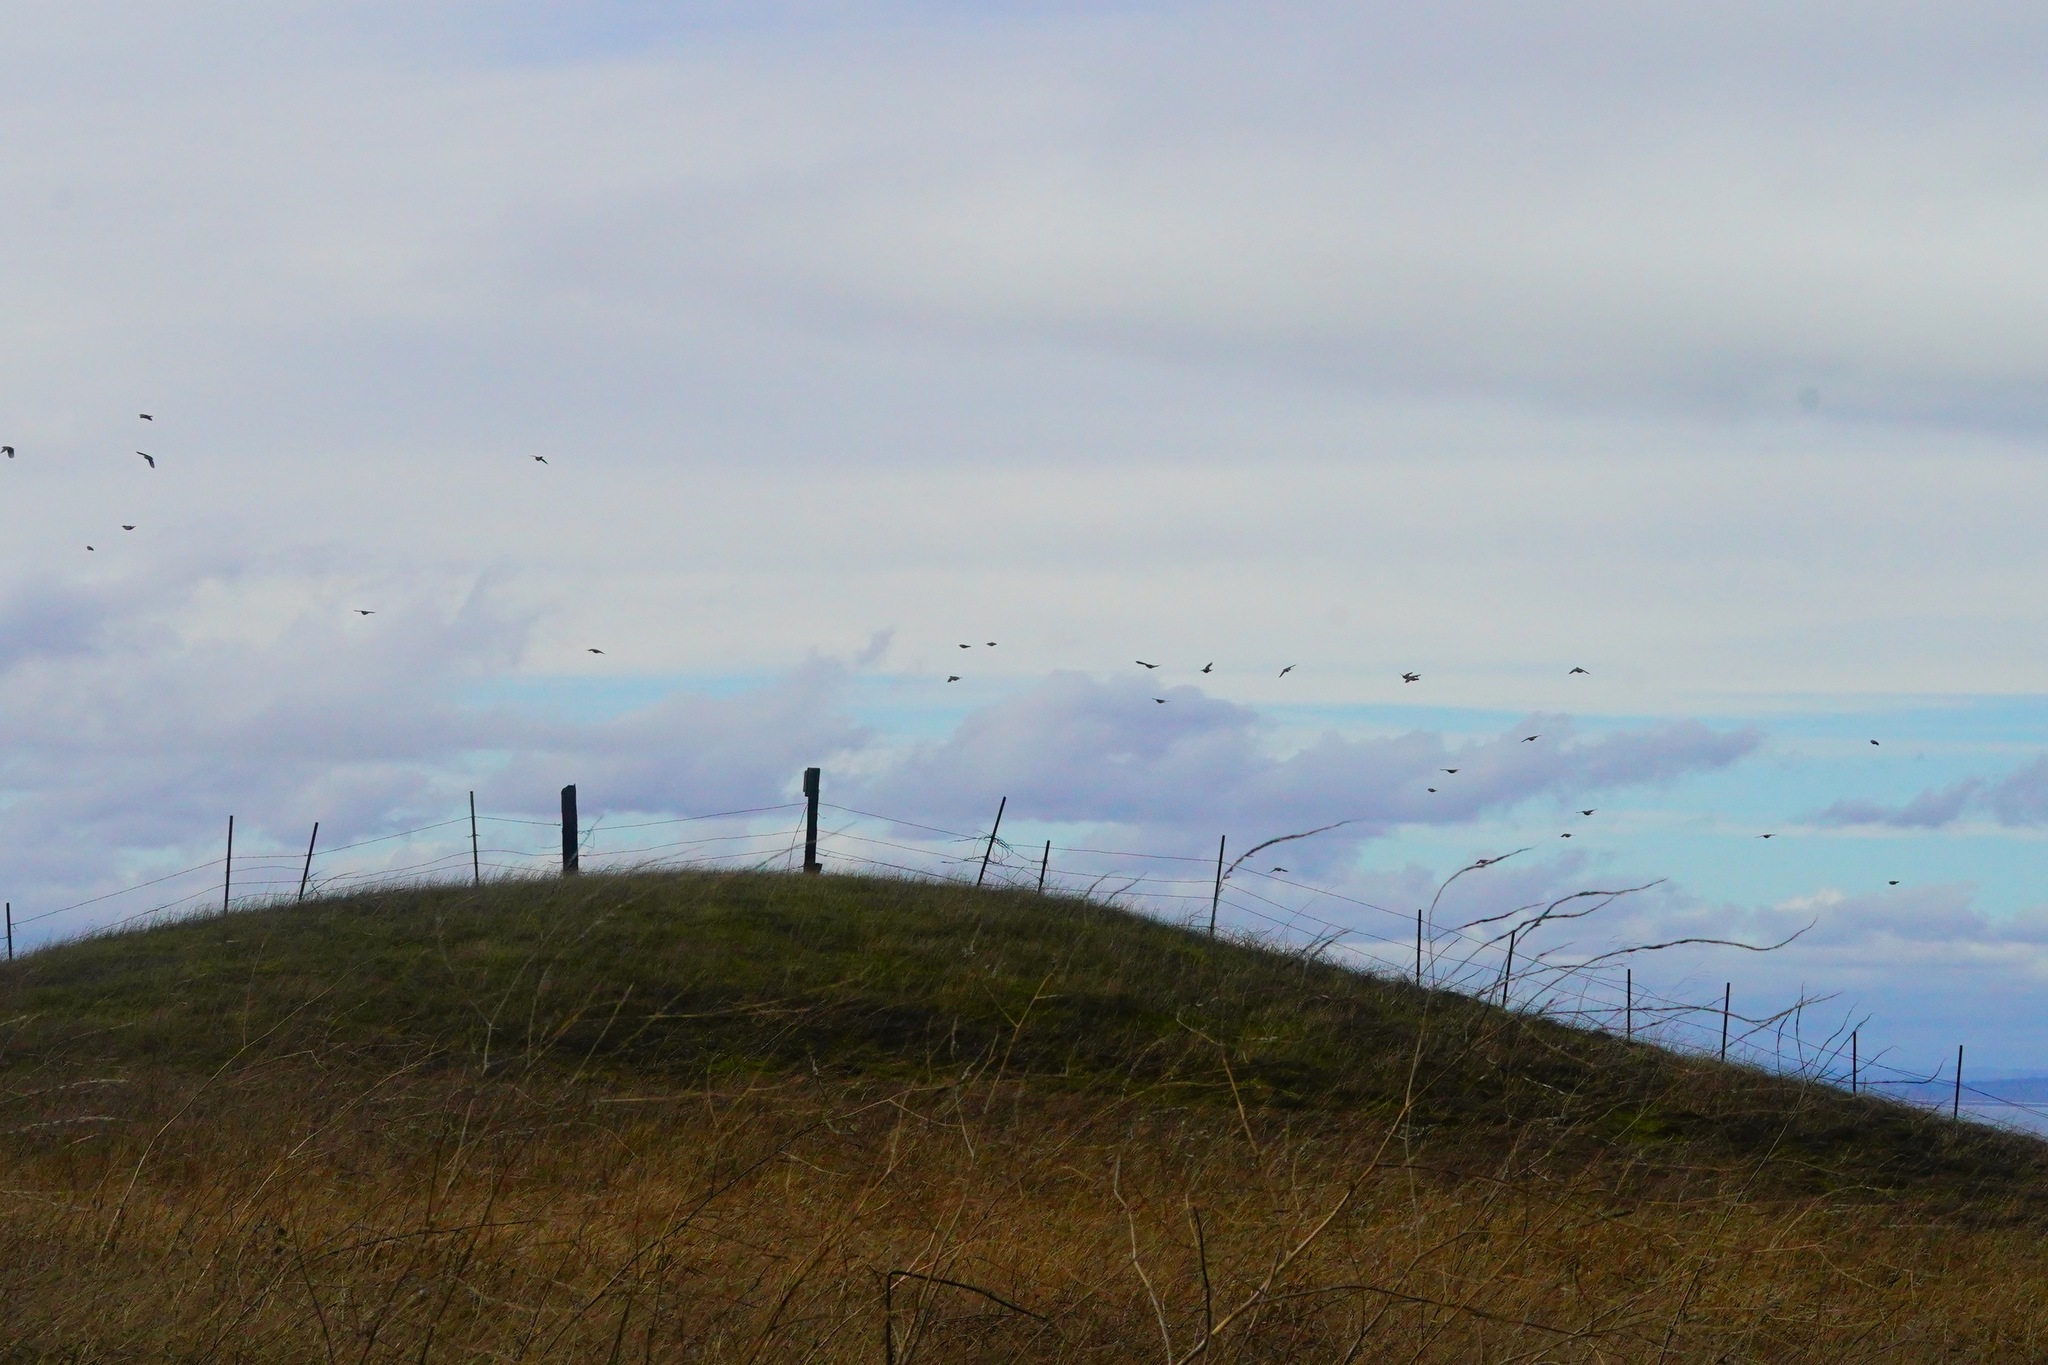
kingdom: Animalia
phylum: Chordata
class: Aves
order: Passeriformes
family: Icteridae
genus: Sturnella
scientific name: Sturnella neglecta
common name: Western meadowlark
